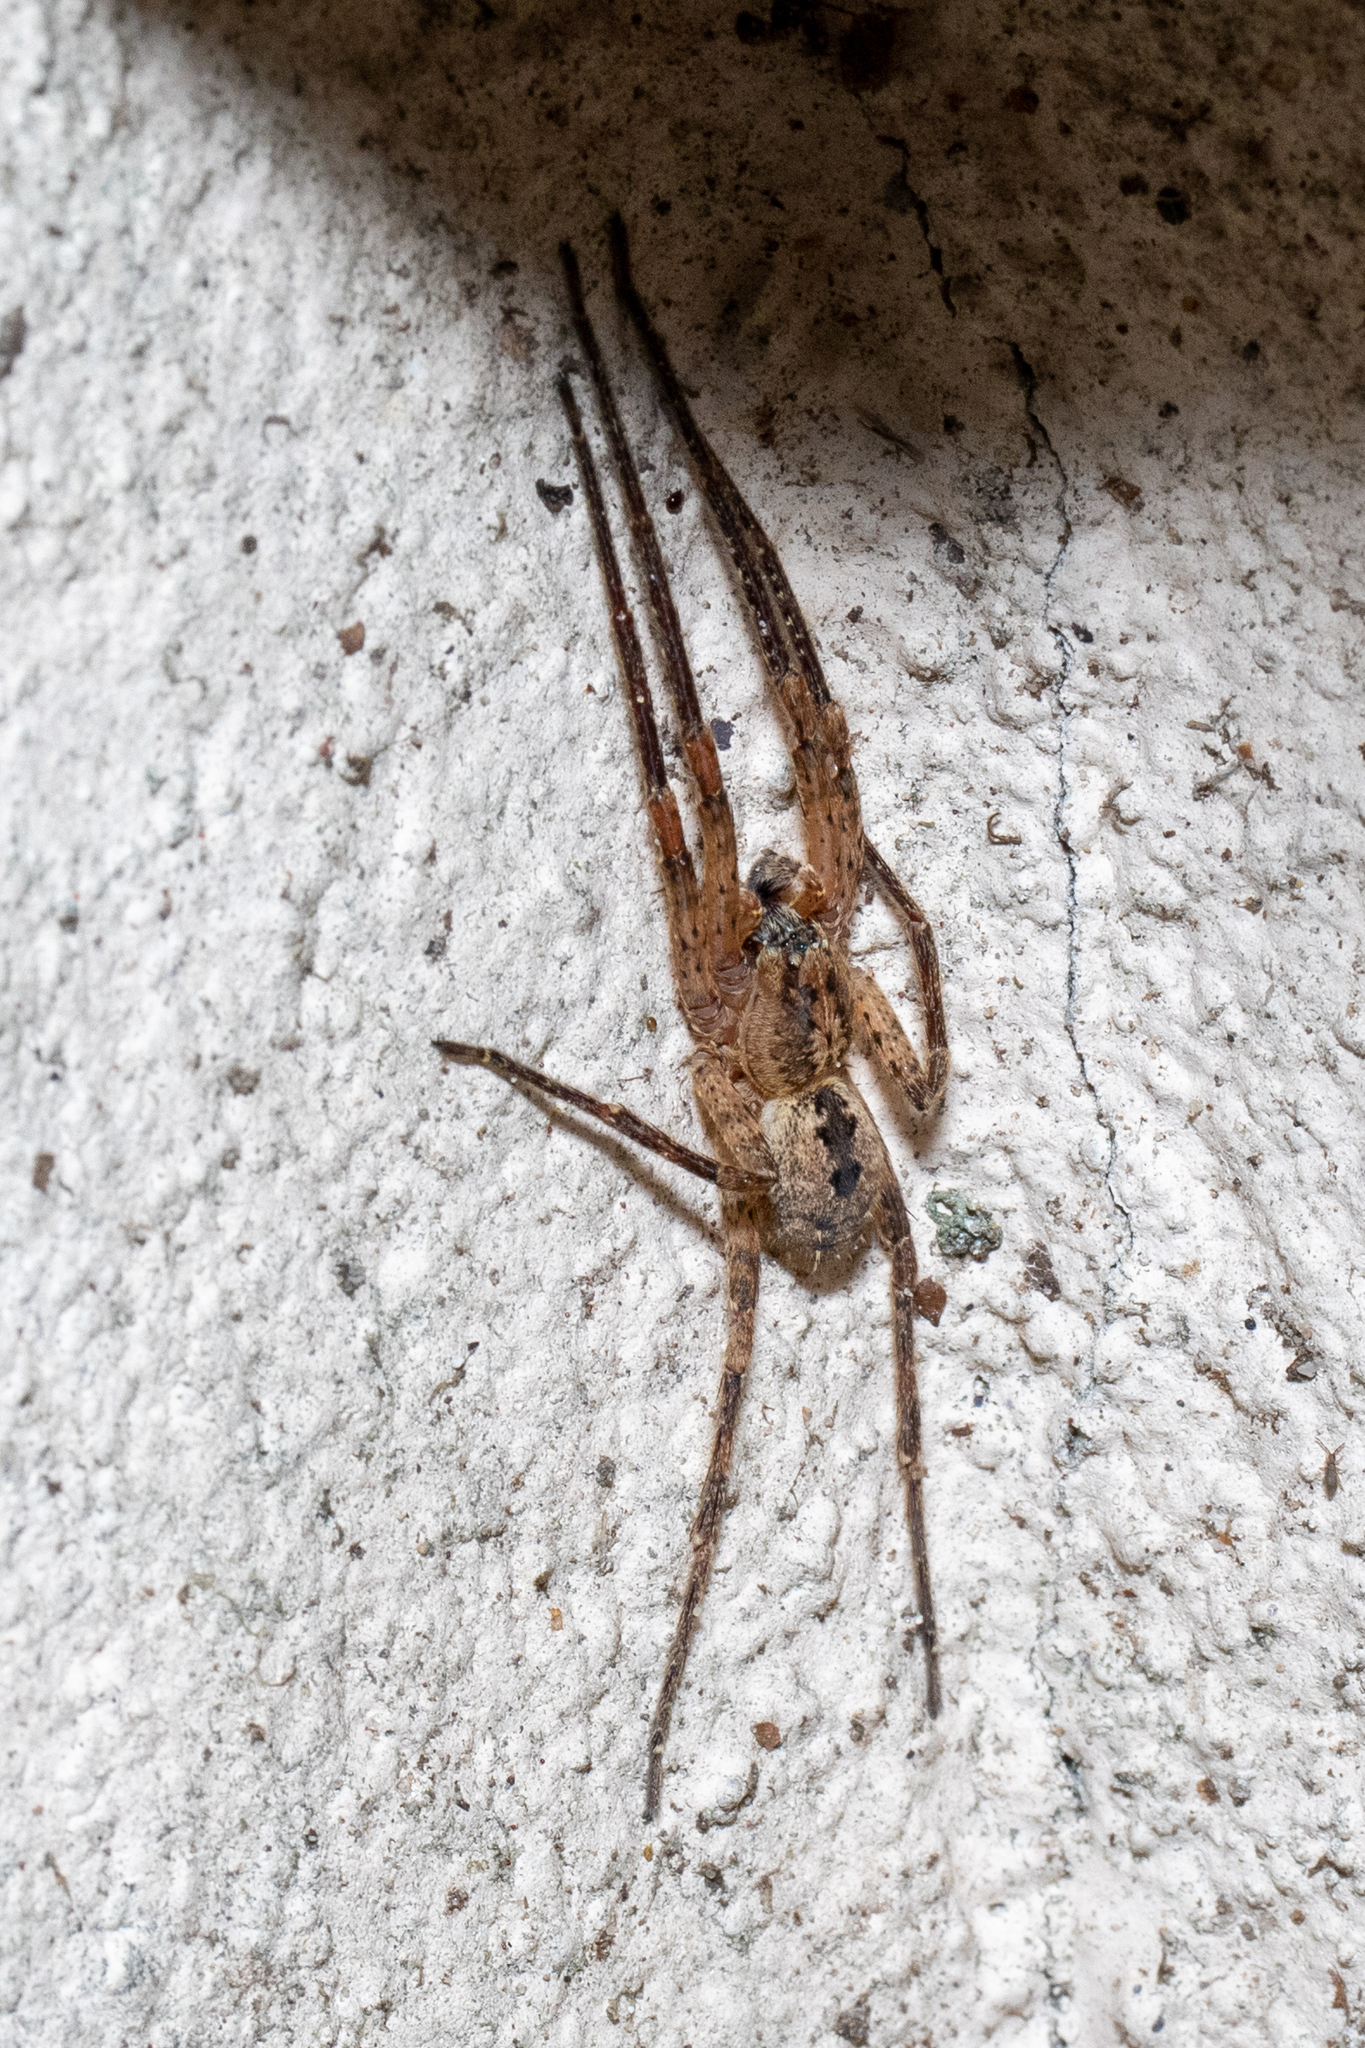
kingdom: Animalia
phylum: Arthropoda
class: Arachnida
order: Araneae
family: Zoropsidae
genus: Zoropsis
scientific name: Zoropsis spinimana
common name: Zoropsid spider
